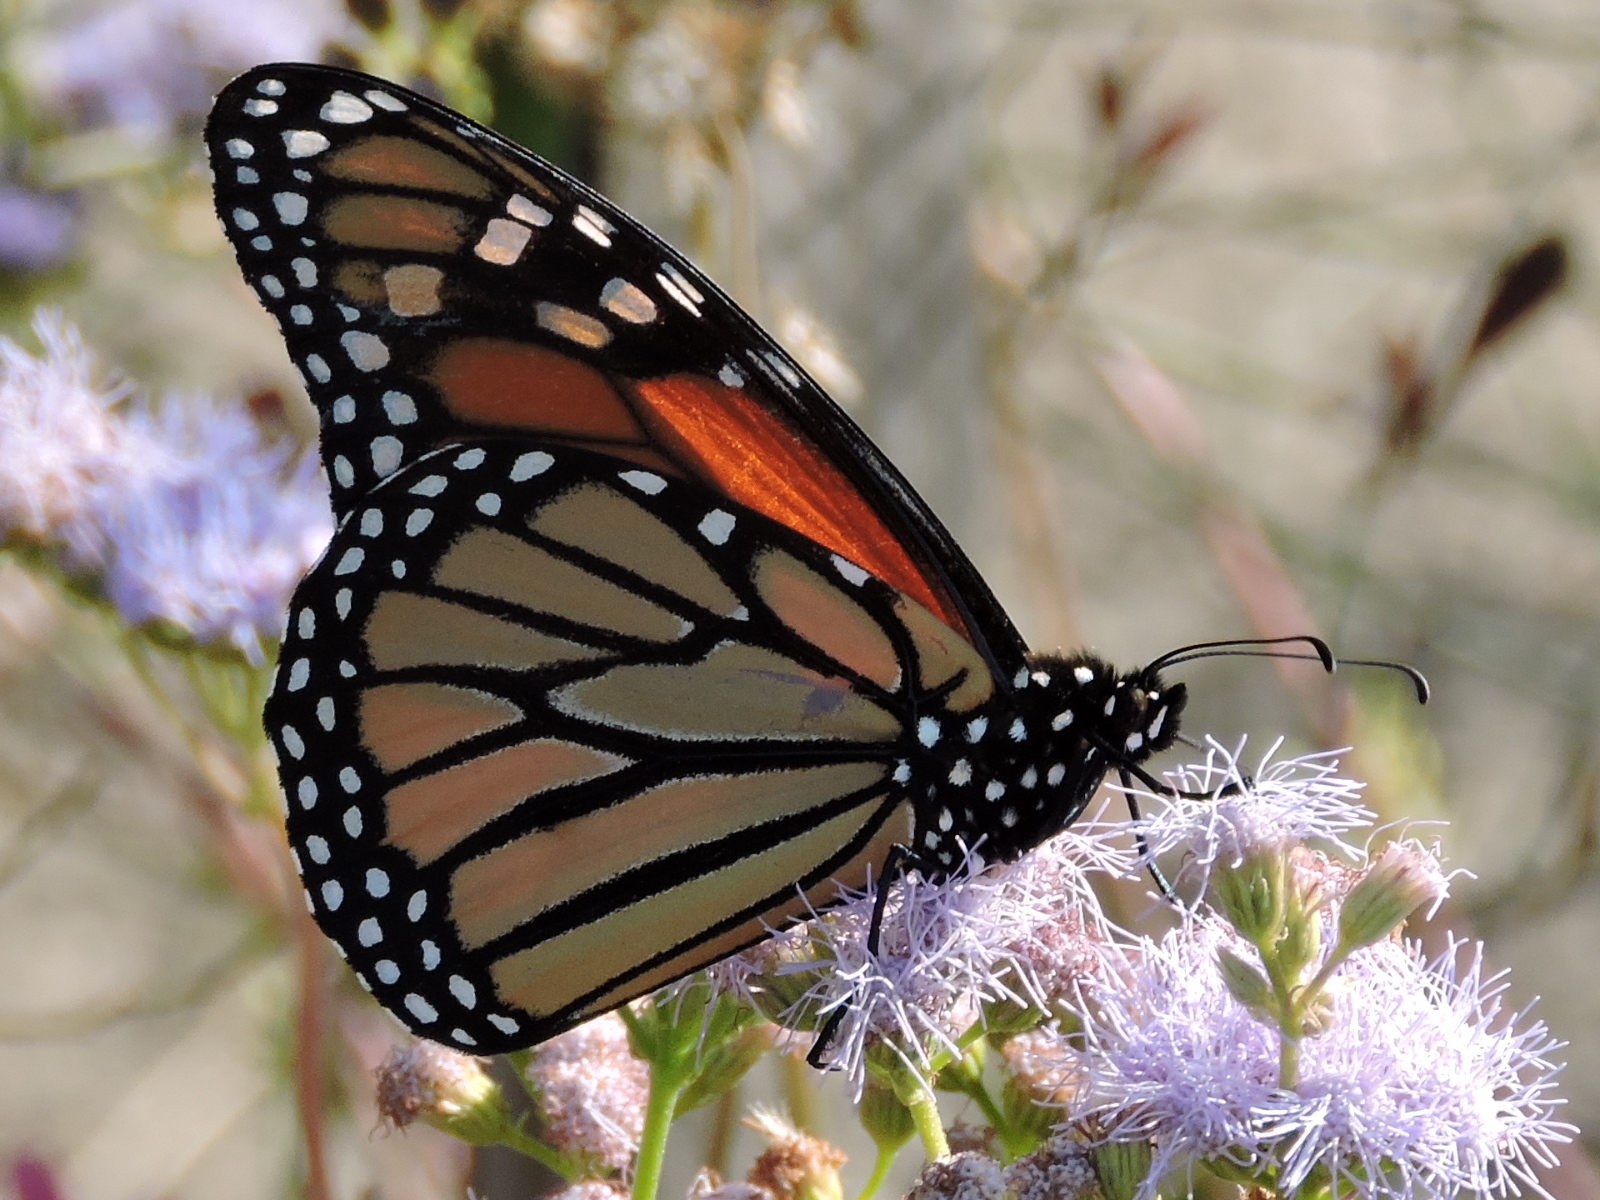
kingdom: Animalia
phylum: Arthropoda
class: Insecta
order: Lepidoptera
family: Nymphalidae
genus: Danaus
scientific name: Danaus plexippus
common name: Monarch
